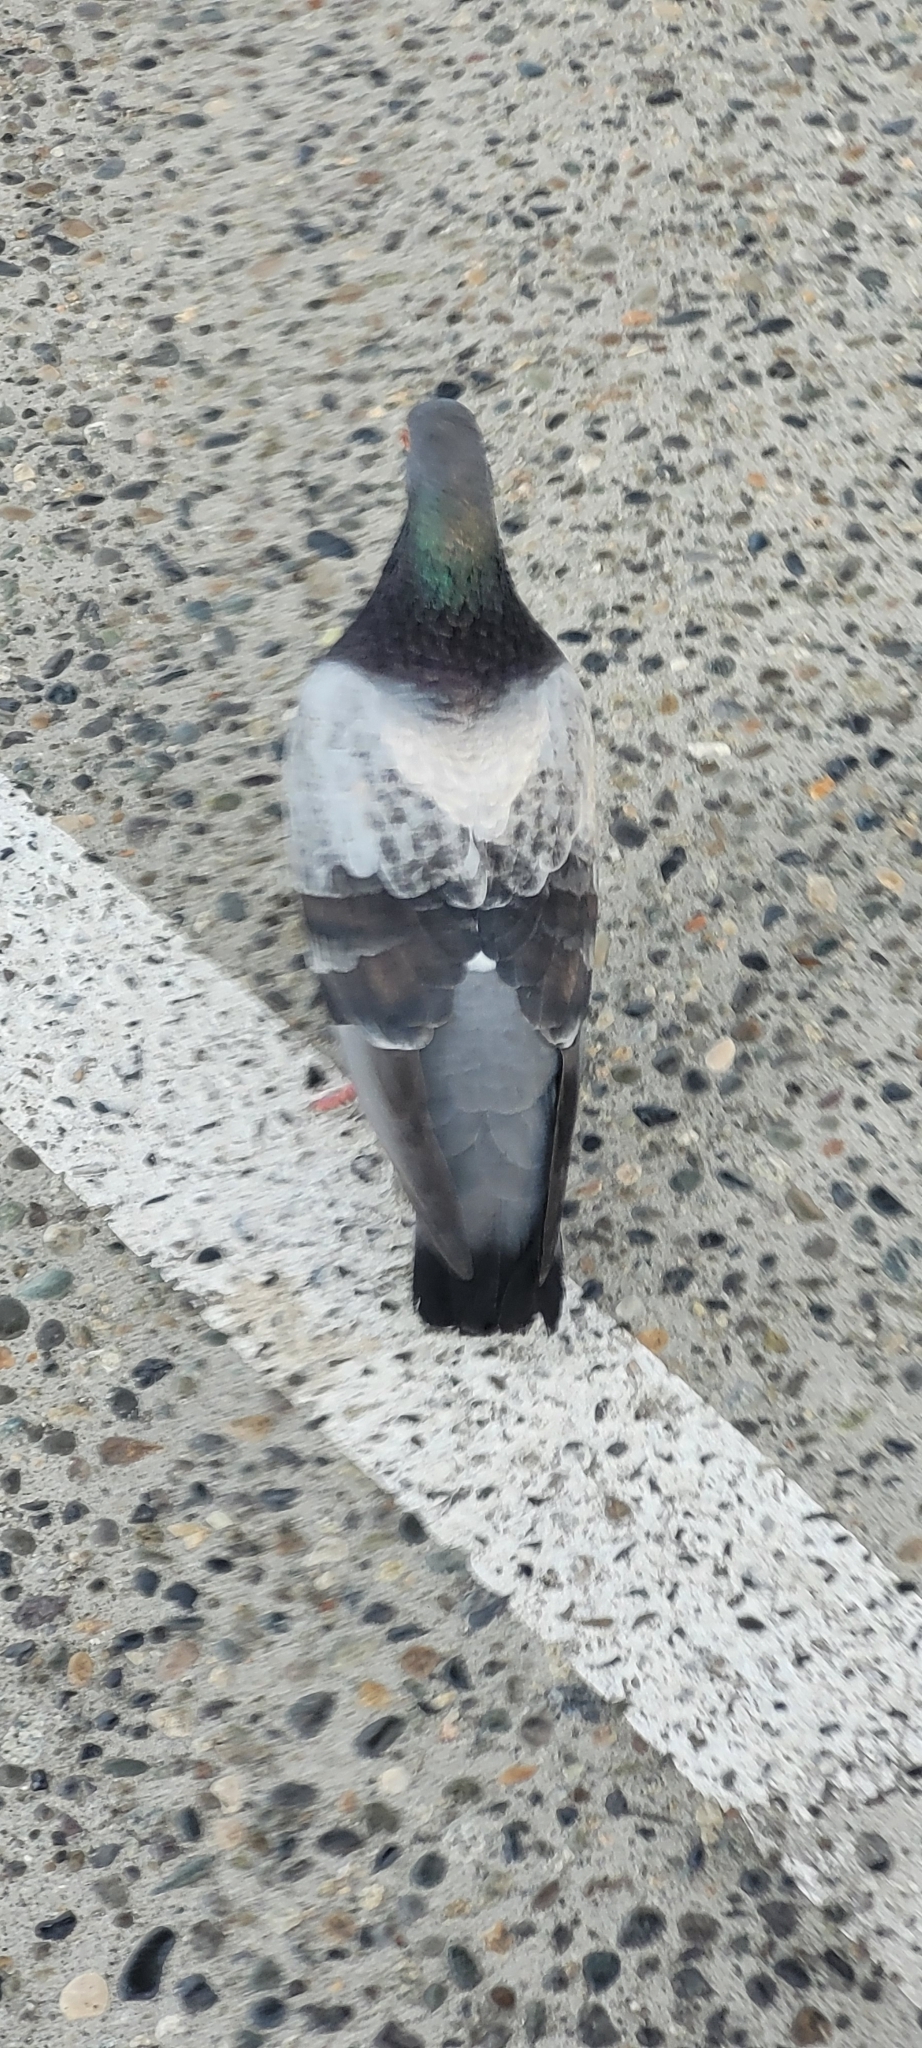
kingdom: Animalia
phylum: Chordata
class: Aves
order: Columbiformes
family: Columbidae
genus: Columba
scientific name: Columba livia
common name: Rock pigeon
